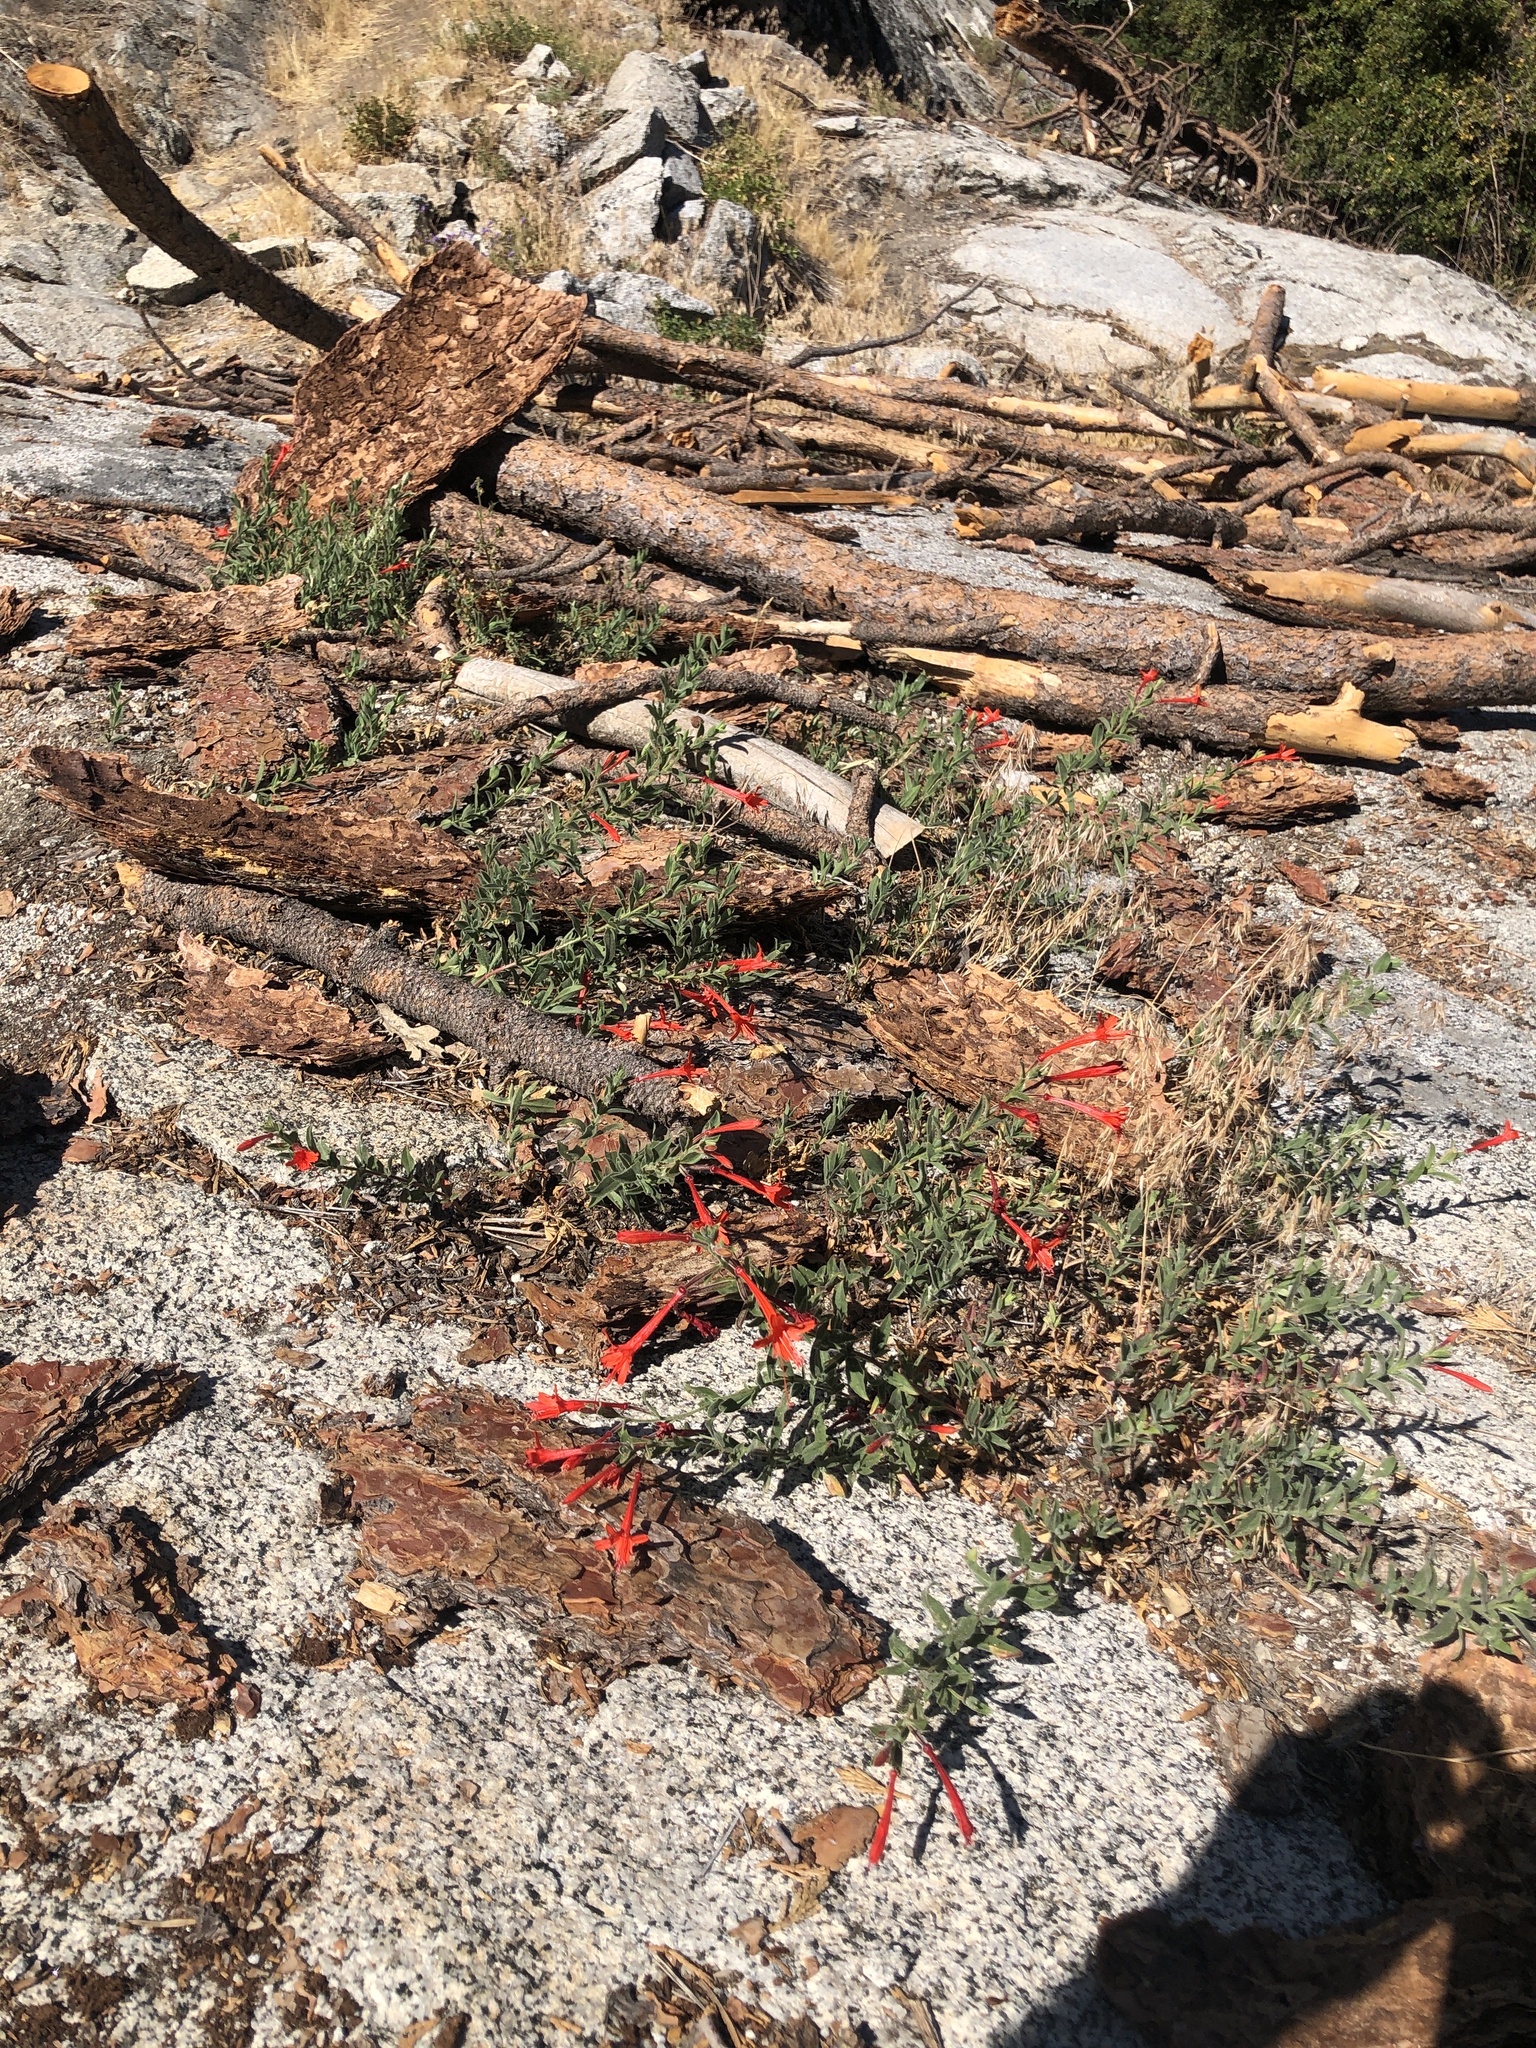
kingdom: Plantae
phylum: Tracheophyta
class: Magnoliopsida
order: Myrtales
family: Onagraceae
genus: Epilobium
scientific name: Epilobium canum
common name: California-fuchsia
